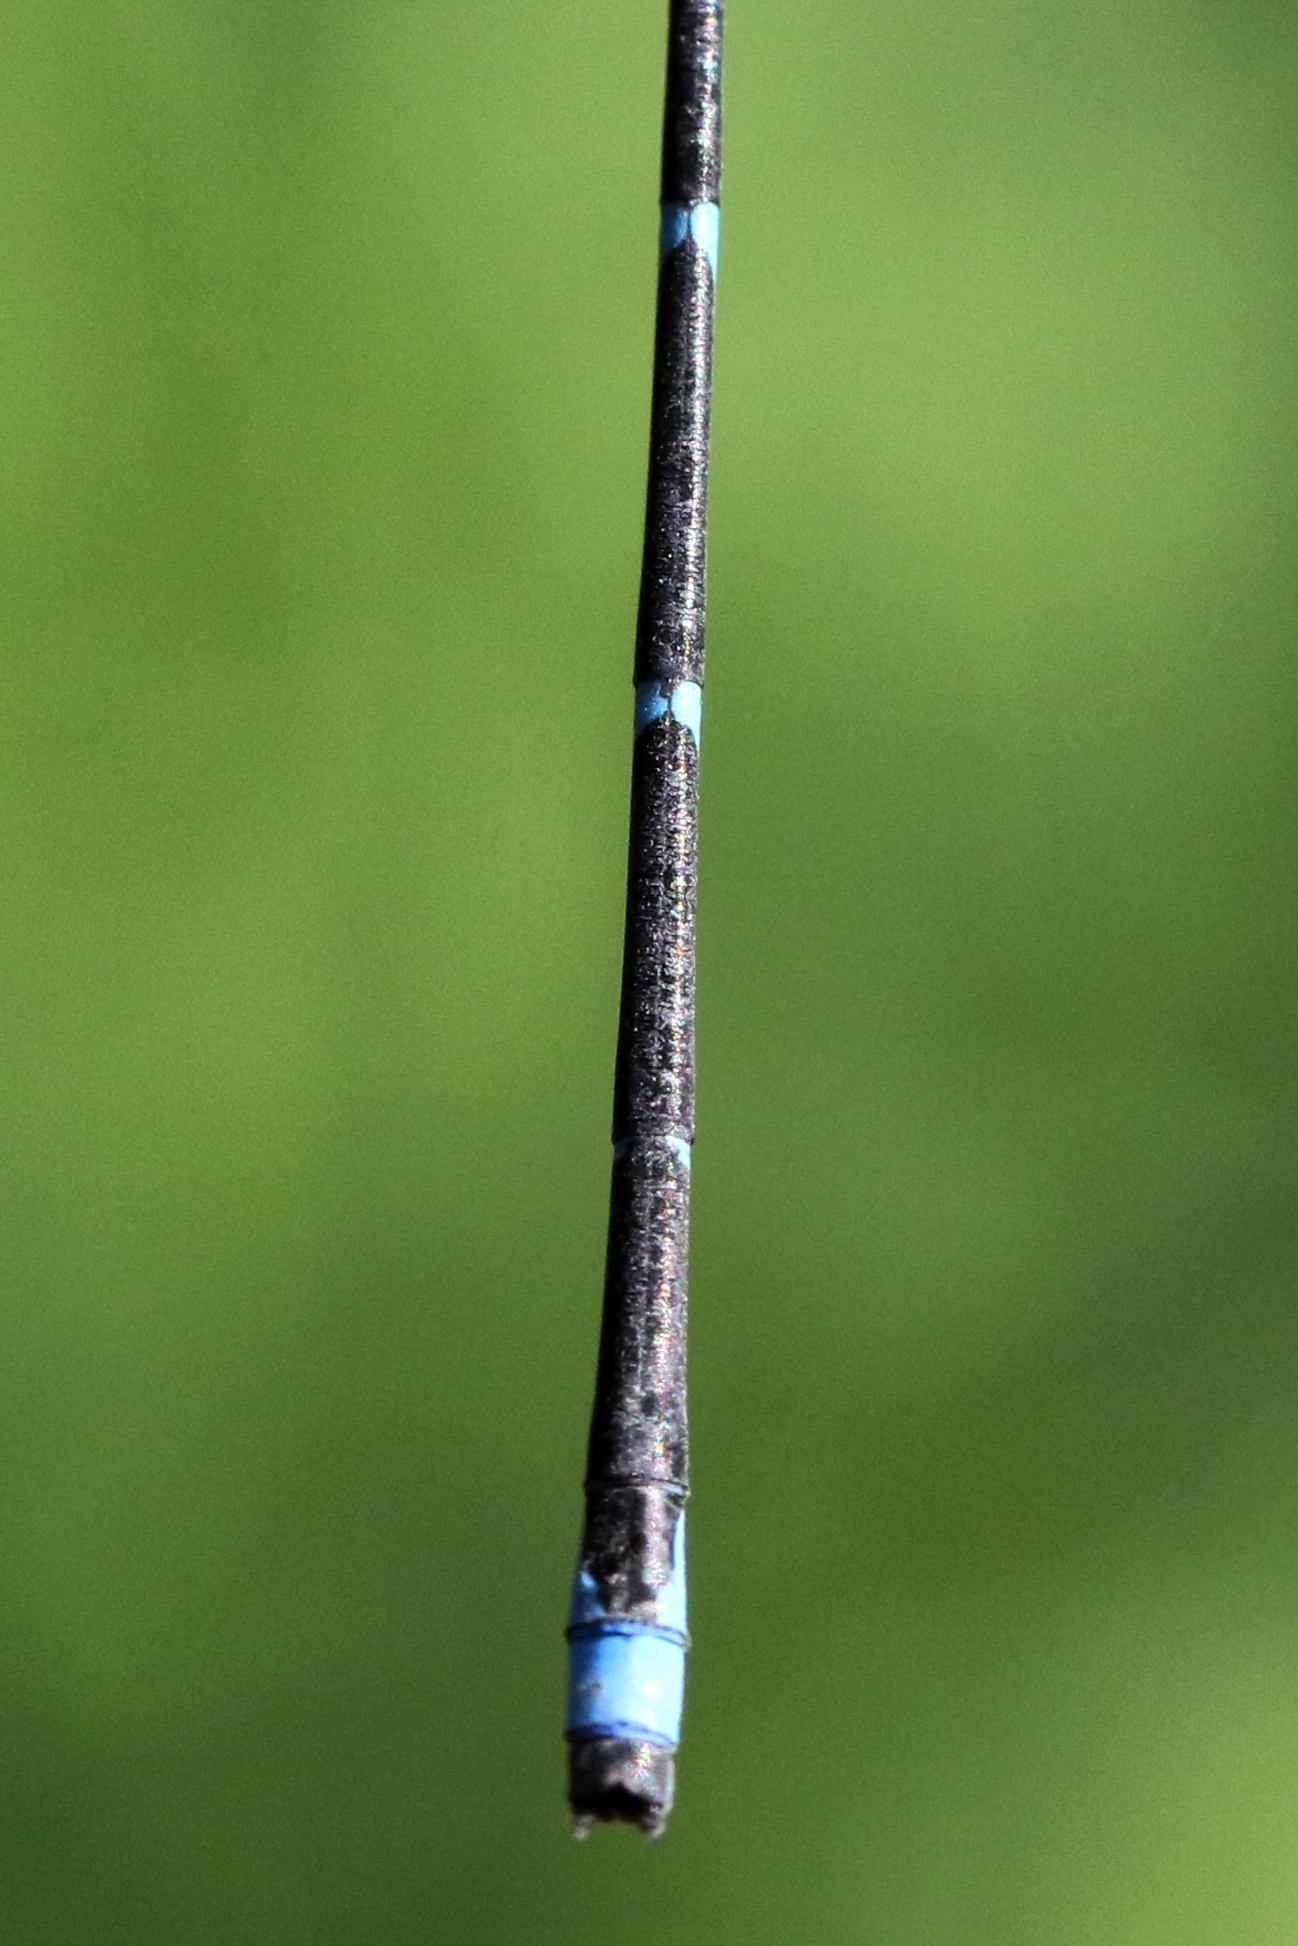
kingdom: Animalia
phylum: Arthropoda
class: Insecta
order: Odonata
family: Coenagrionidae
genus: Enallagma
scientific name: Enallagma exsulans
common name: Stream bluet
